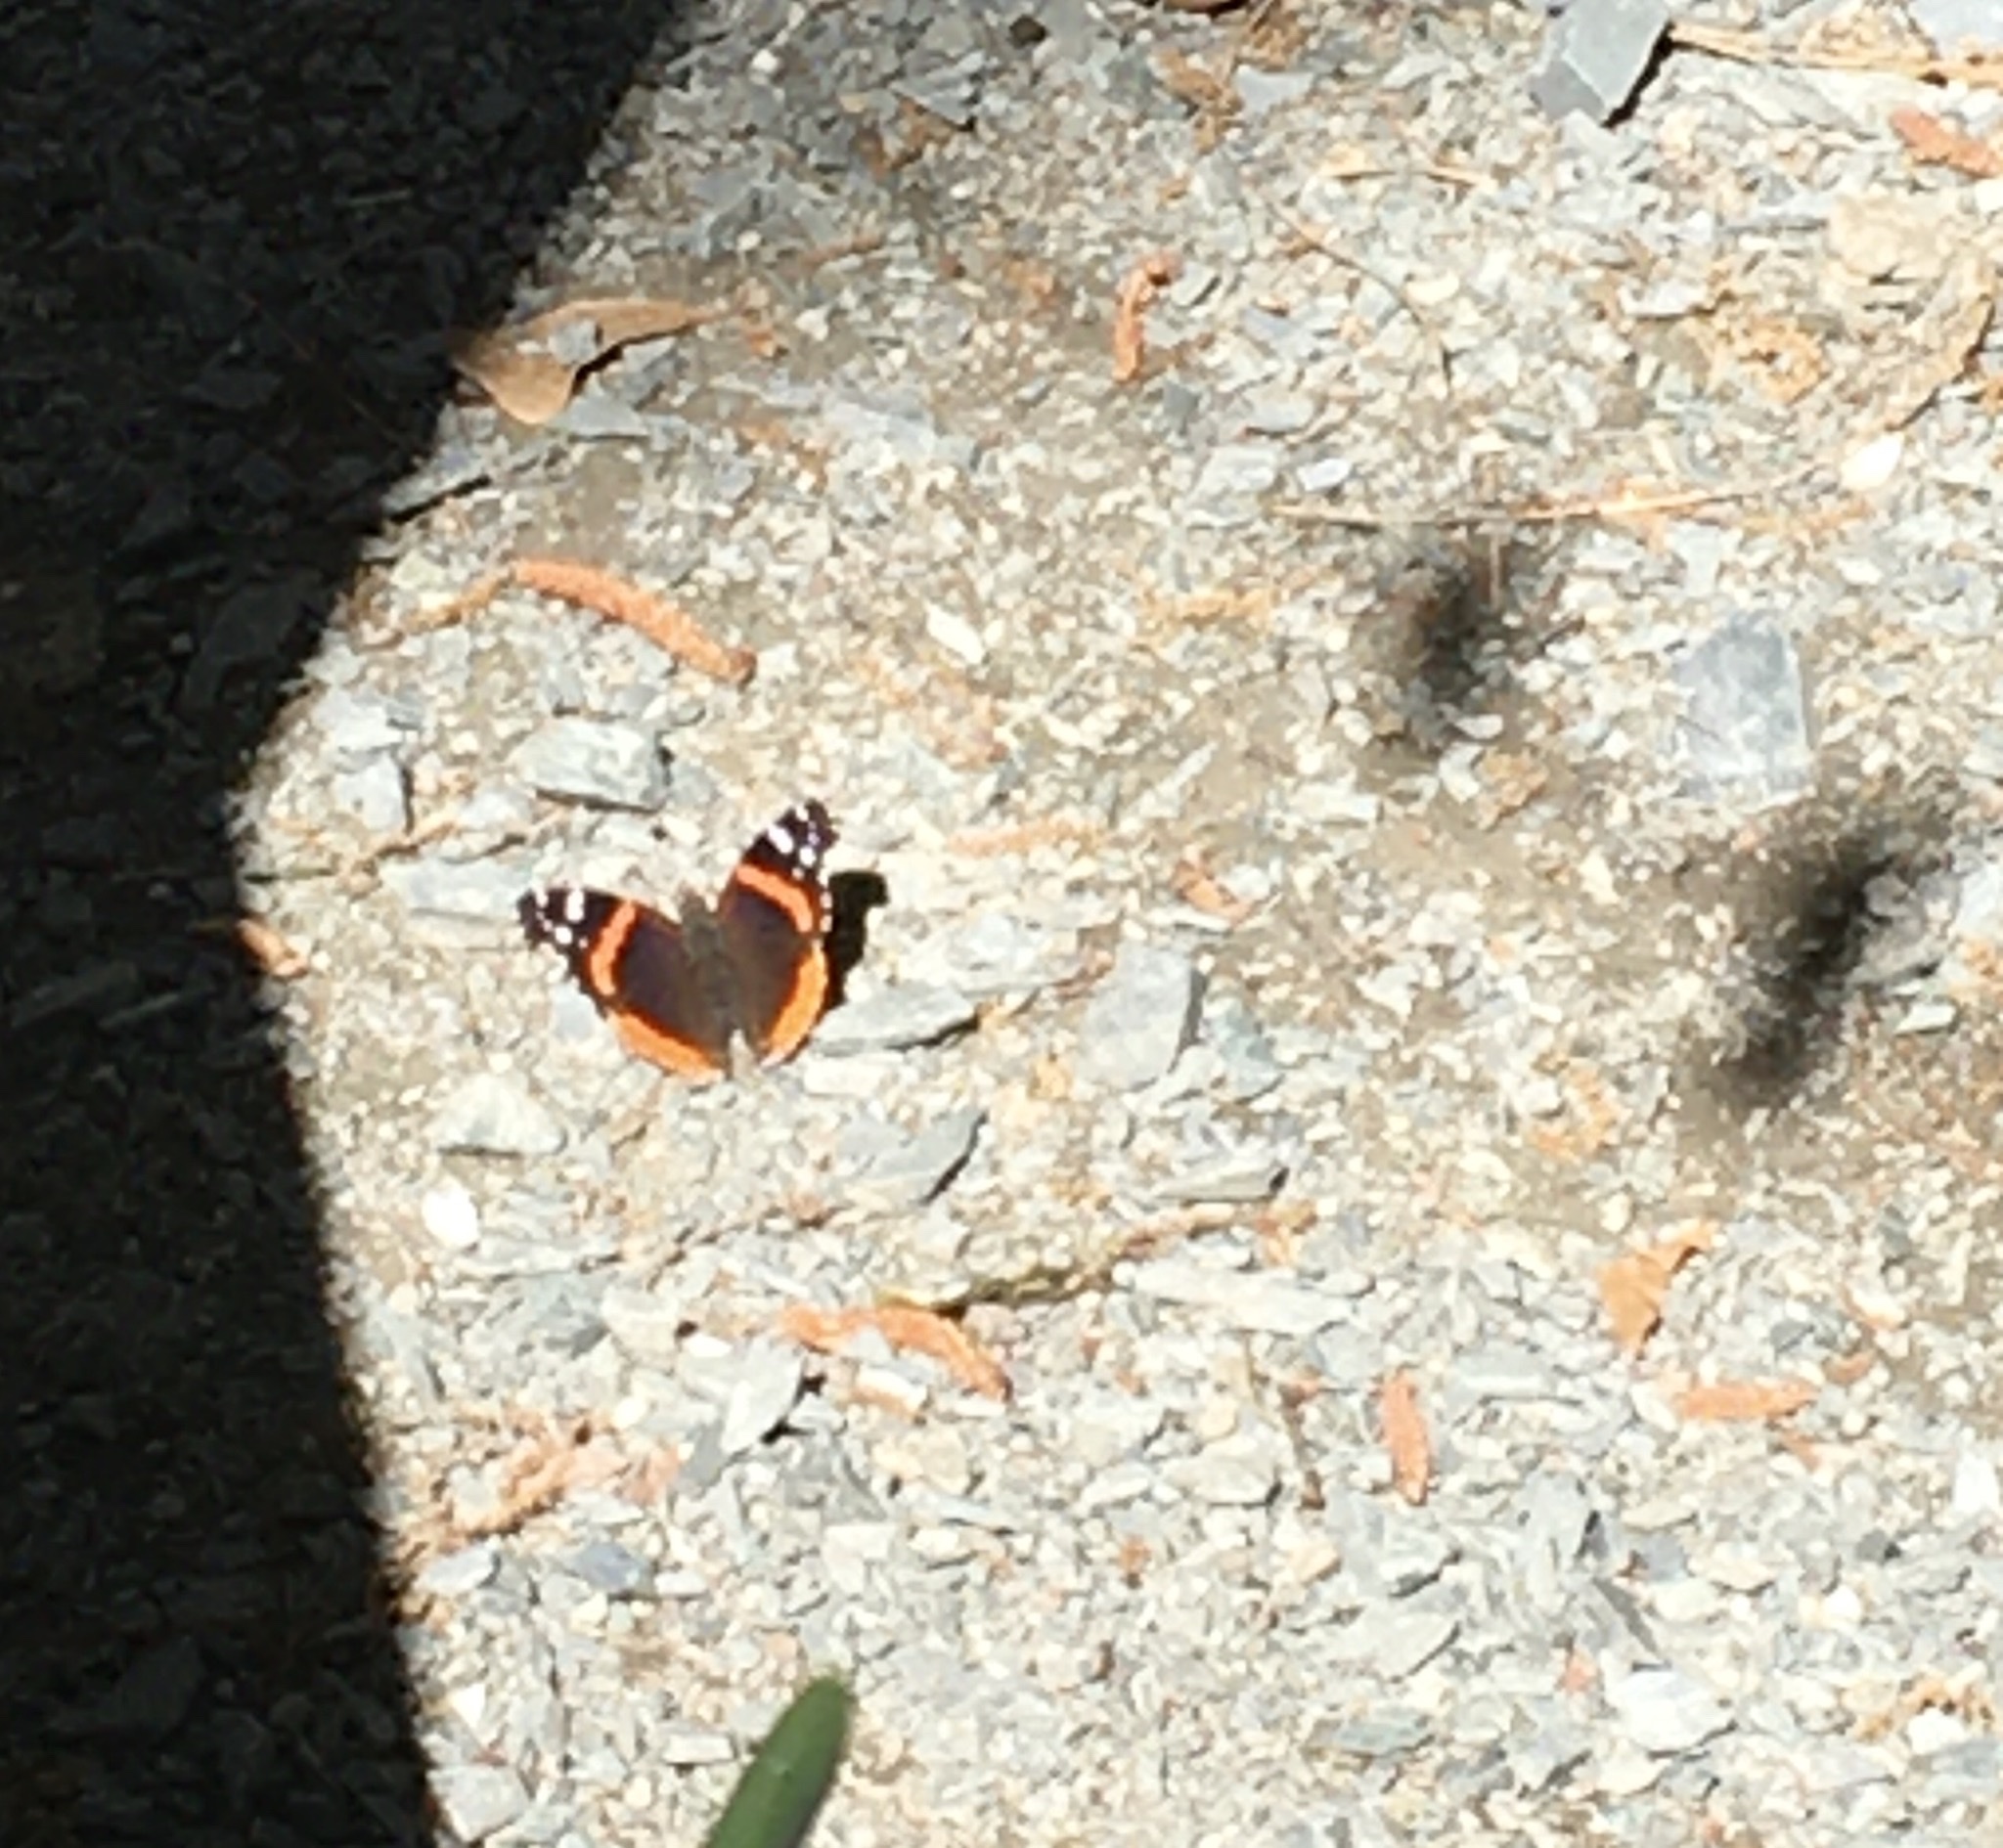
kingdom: Animalia
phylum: Arthropoda
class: Insecta
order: Lepidoptera
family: Nymphalidae
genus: Vanessa
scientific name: Vanessa atalanta
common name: Red admiral
